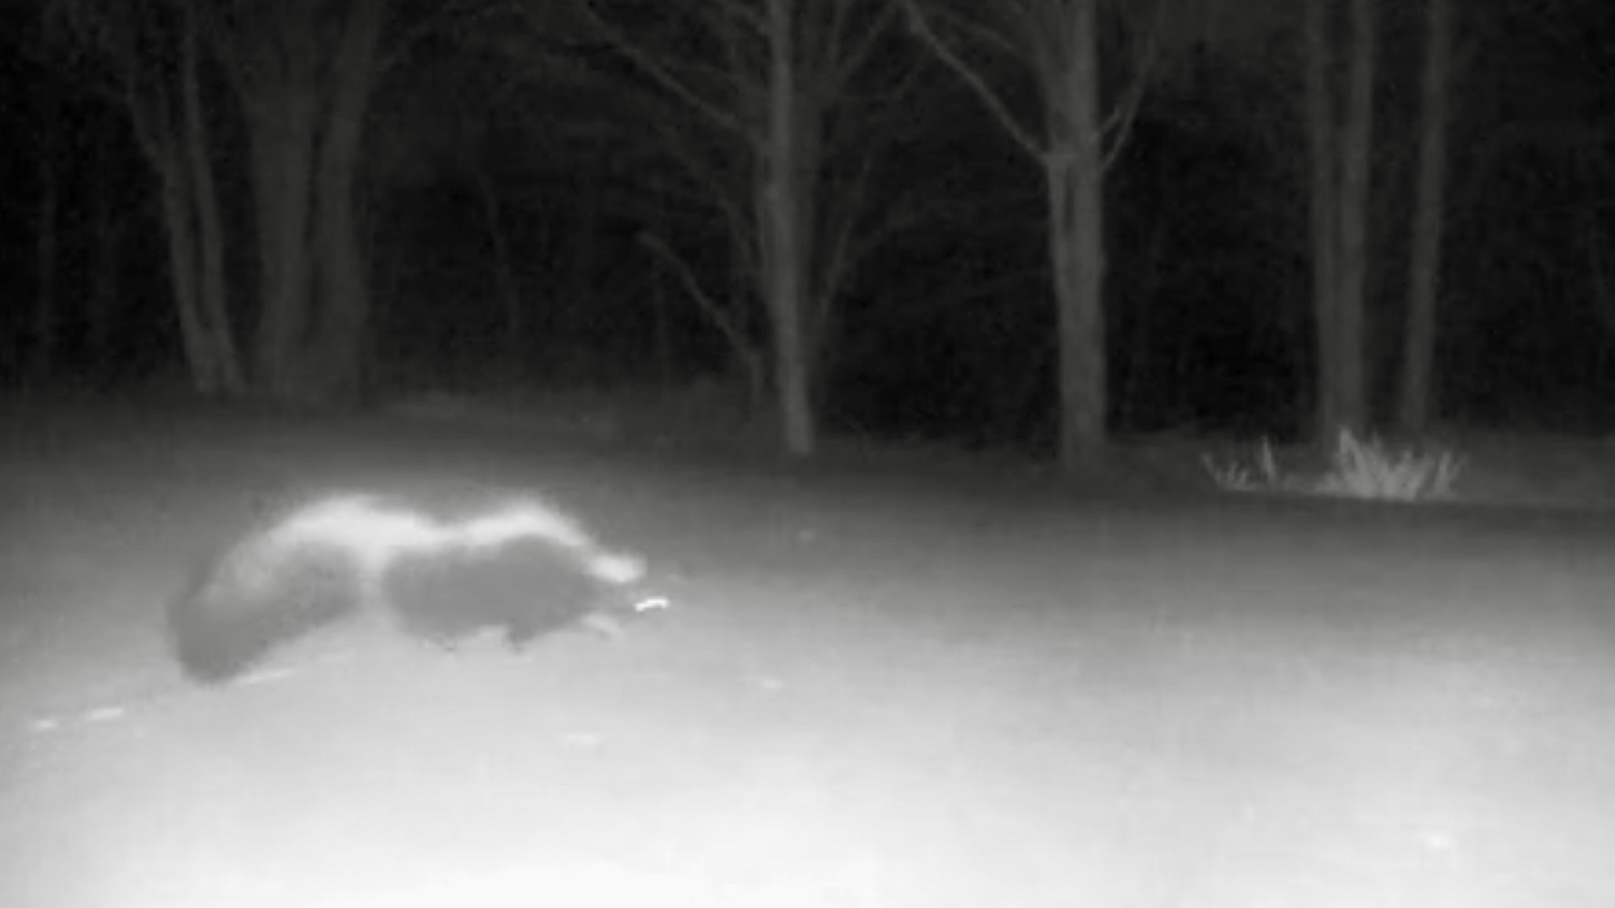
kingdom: Animalia
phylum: Chordata
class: Mammalia
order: Carnivora
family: Mephitidae
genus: Mephitis
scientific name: Mephitis mephitis
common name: Striped skunk
